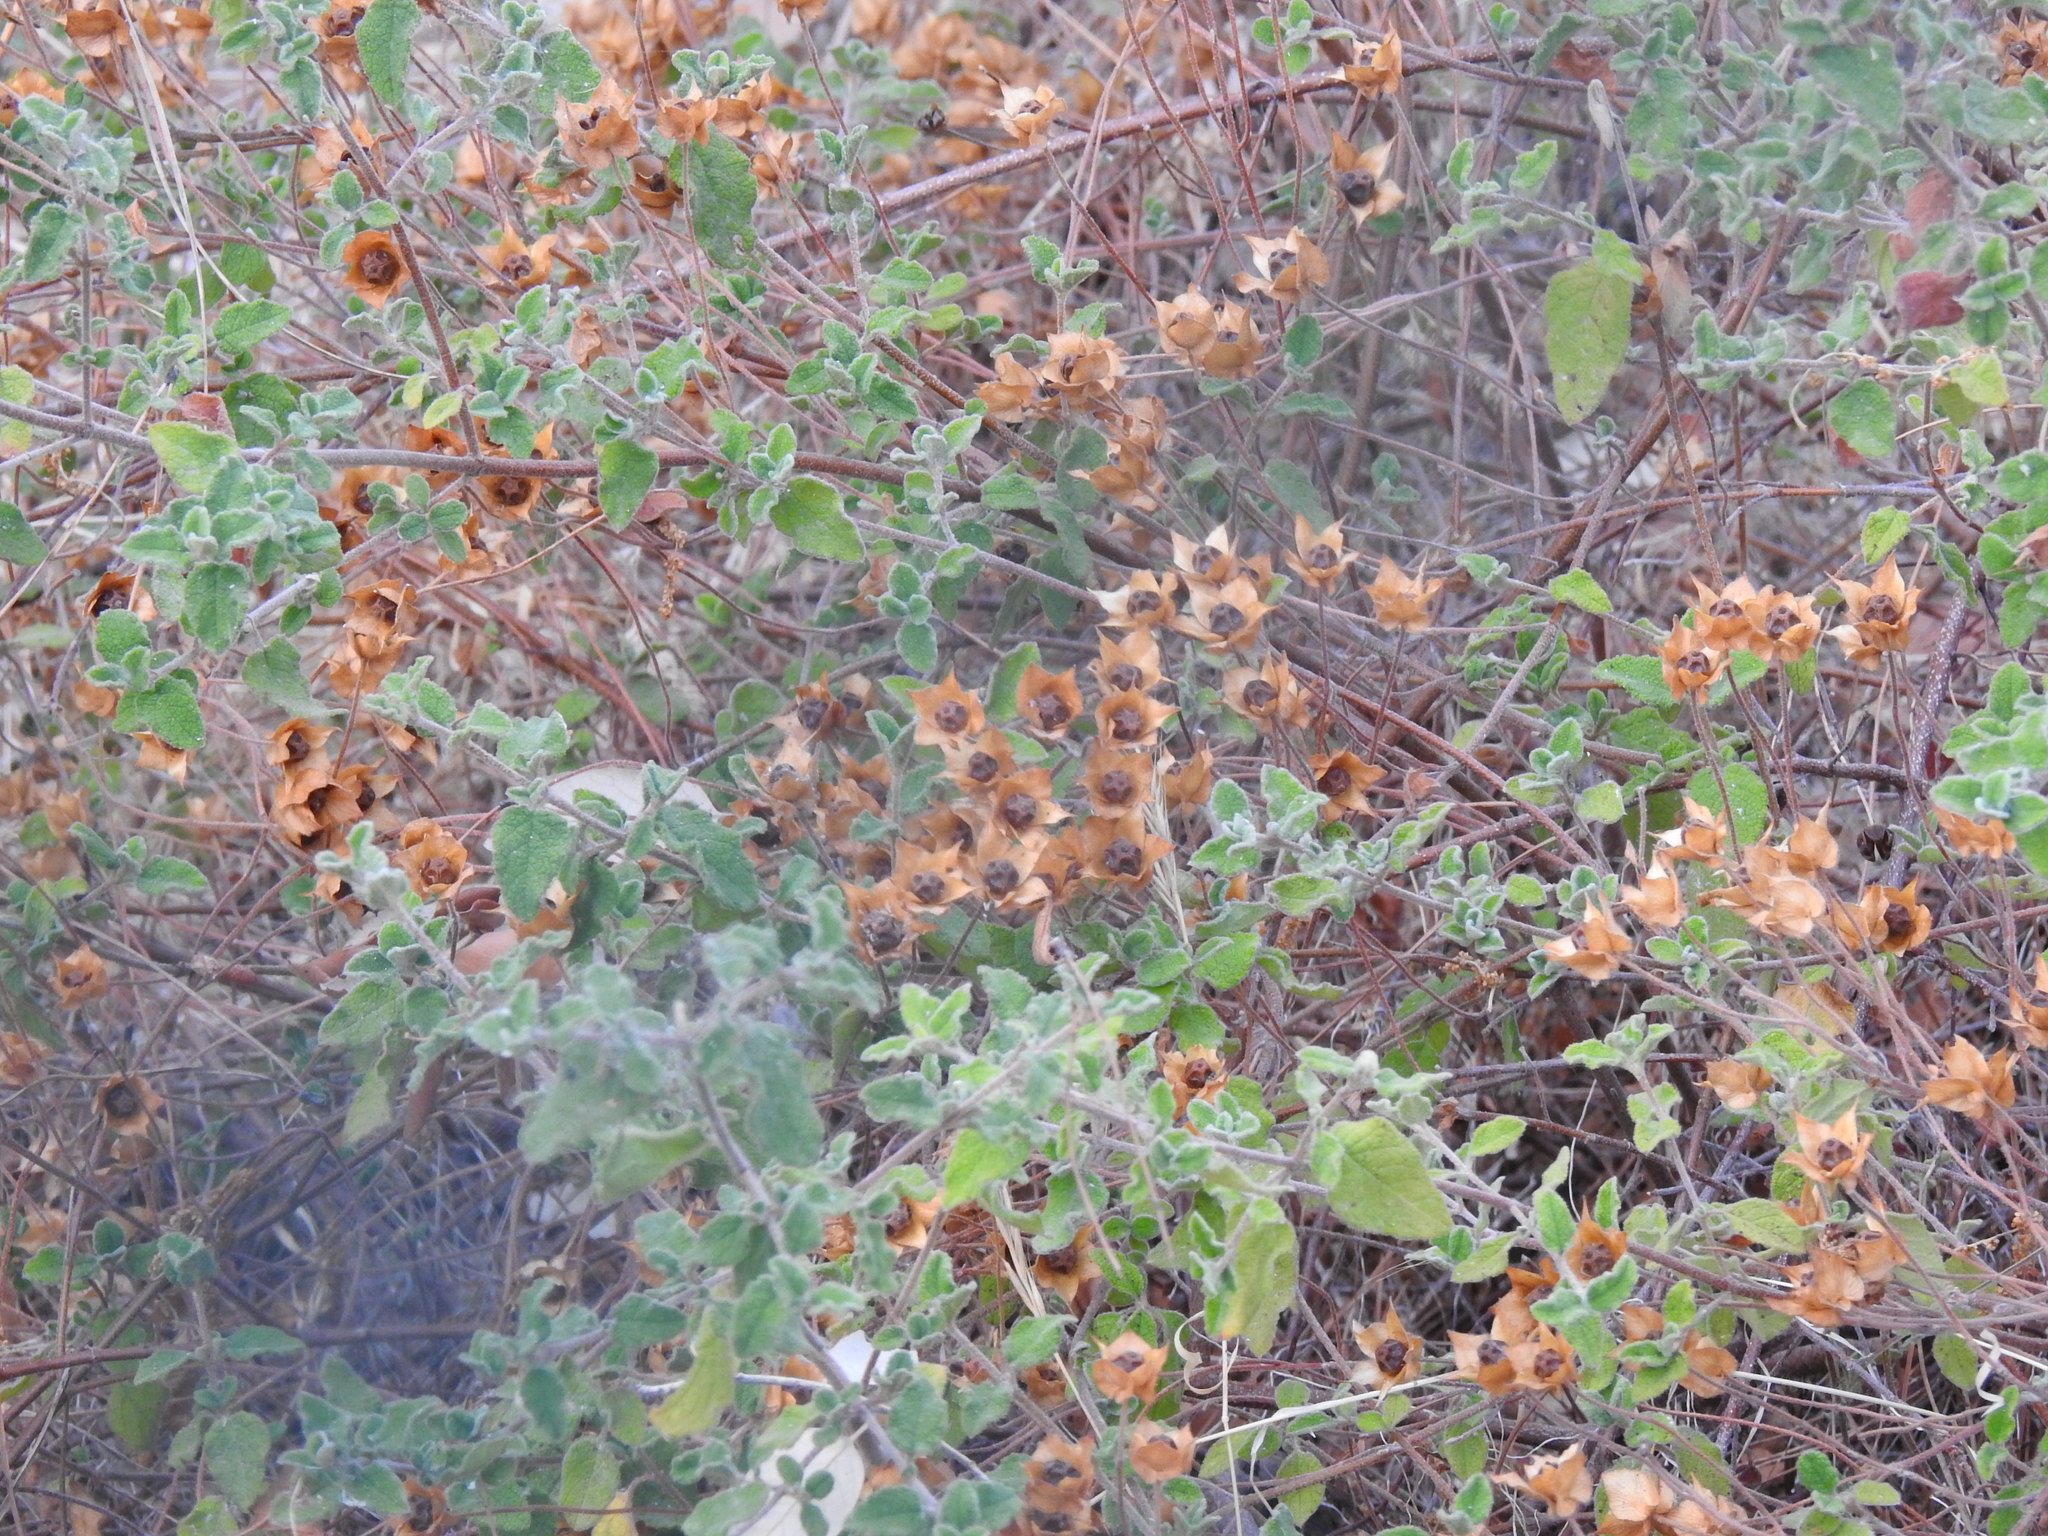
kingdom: Plantae
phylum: Tracheophyta
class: Magnoliopsida
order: Malvales
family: Cistaceae
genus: Cistus
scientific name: Cistus salviifolius
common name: Salvia cistus
